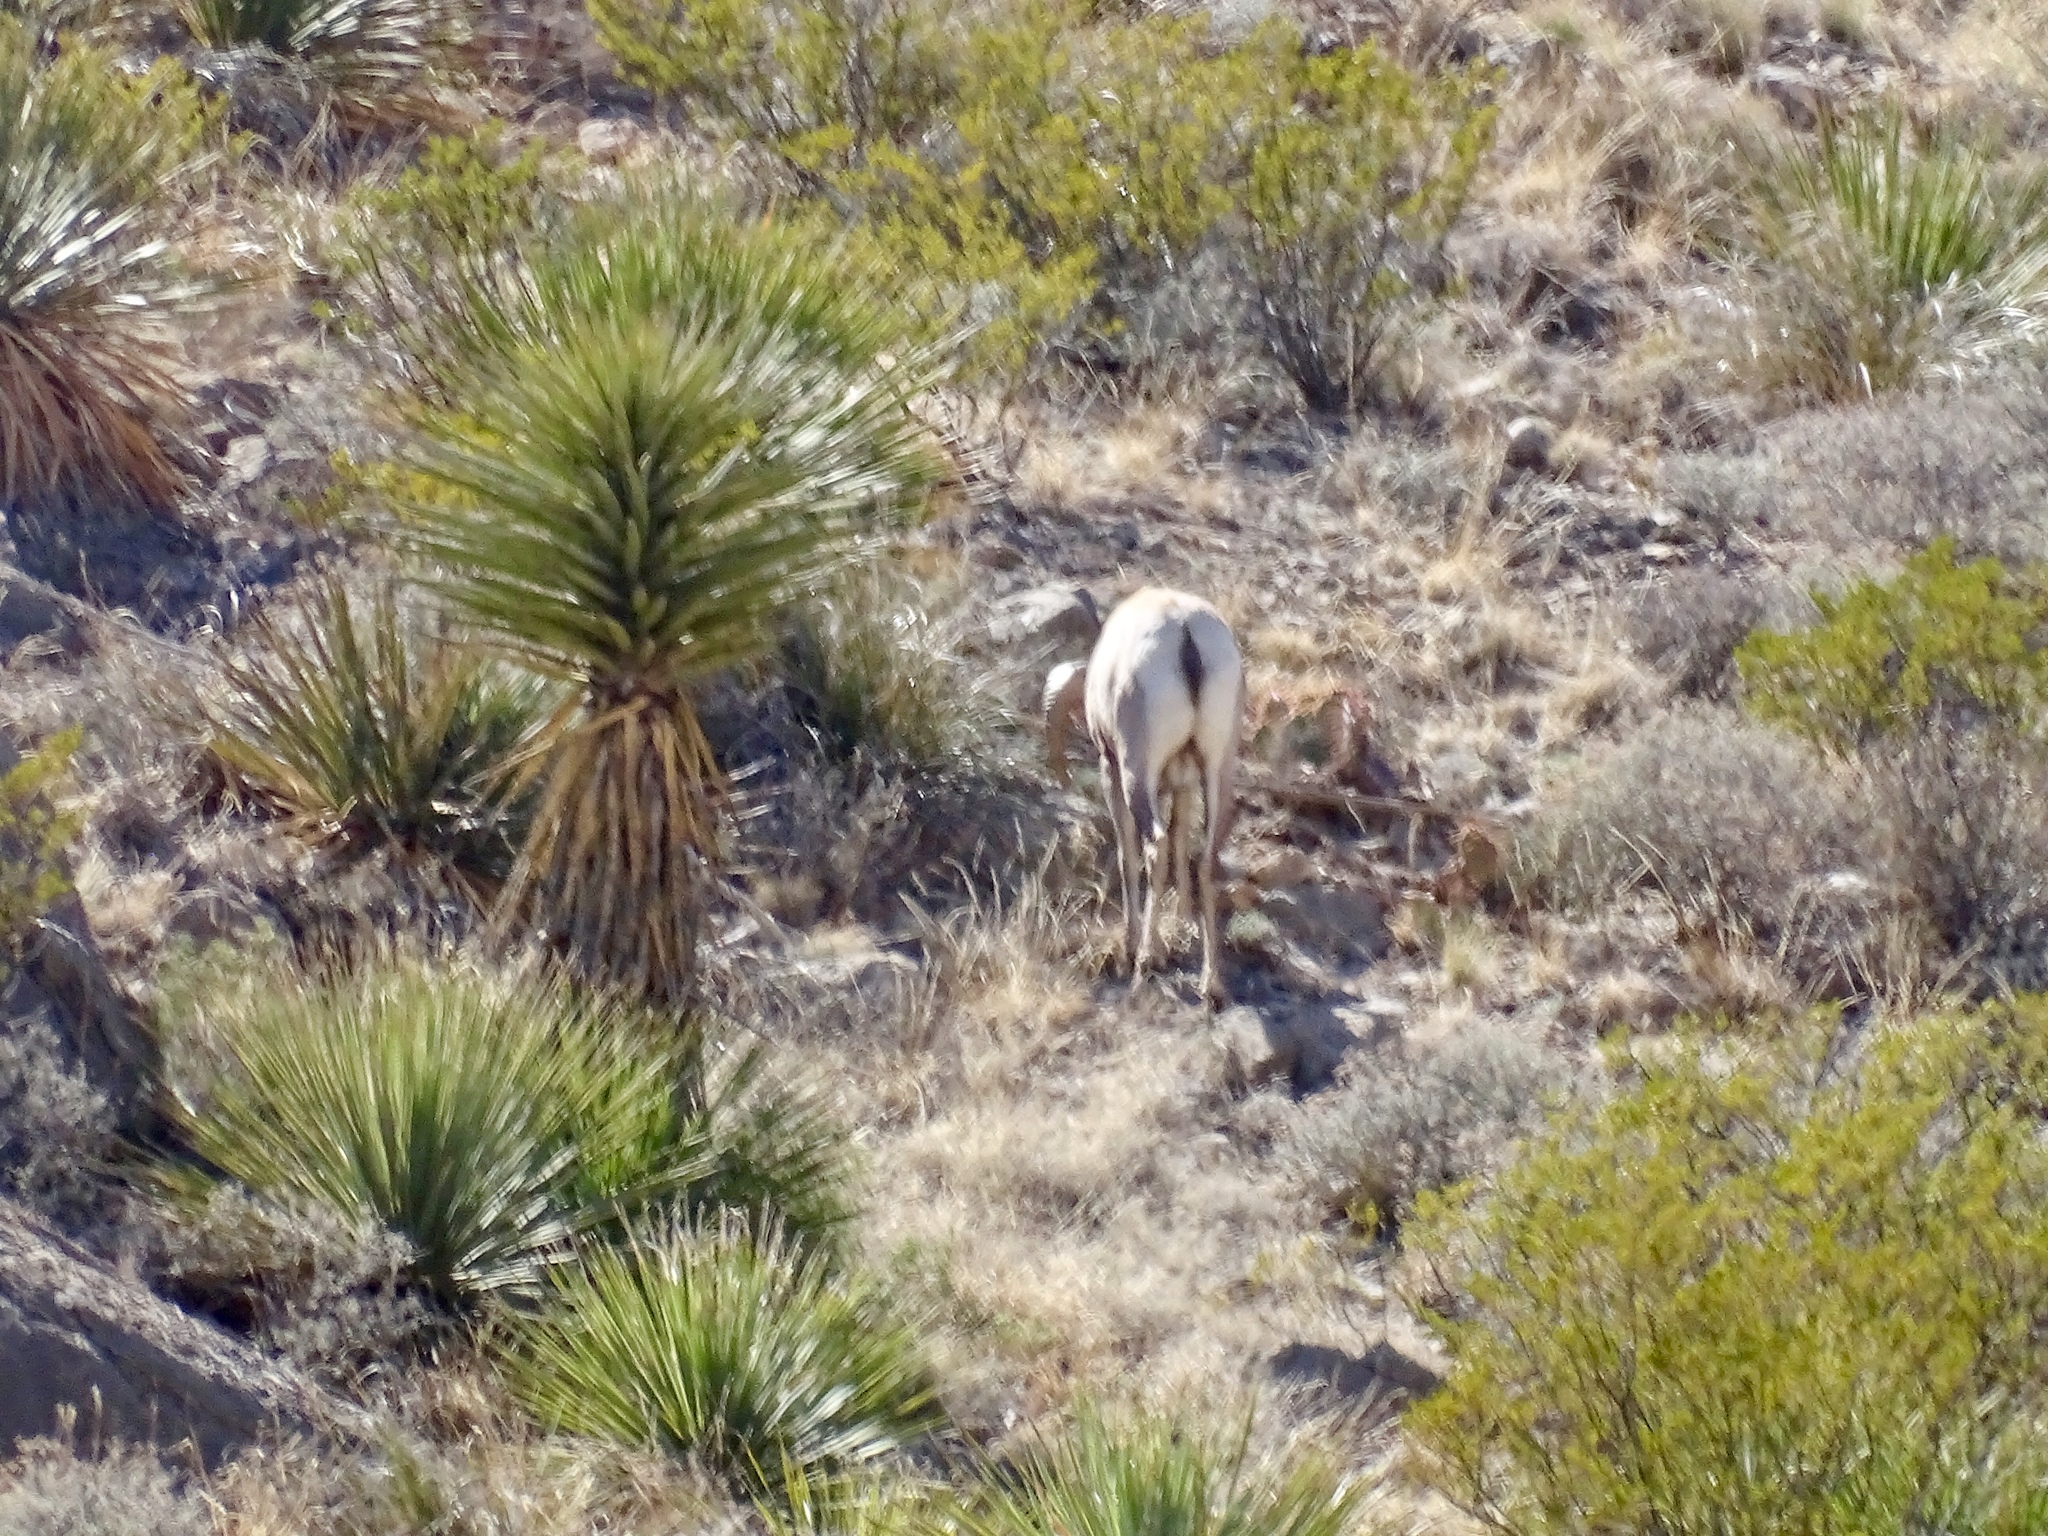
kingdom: Animalia
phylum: Chordata
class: Mammalia
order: Artiodactyla
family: Bovidae
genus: Ovis
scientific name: Ovis canadensis
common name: Bighorn sheep
